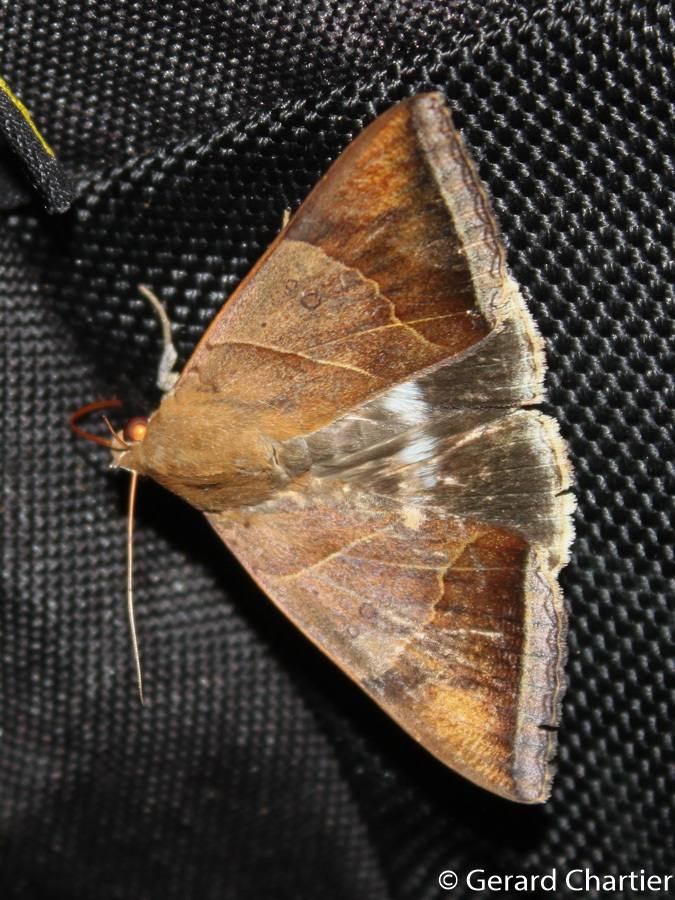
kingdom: Animalia
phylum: Arthropoda
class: Insecta
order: Lepidoptera
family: Erebidae
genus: Artena
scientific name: Artena dotata
